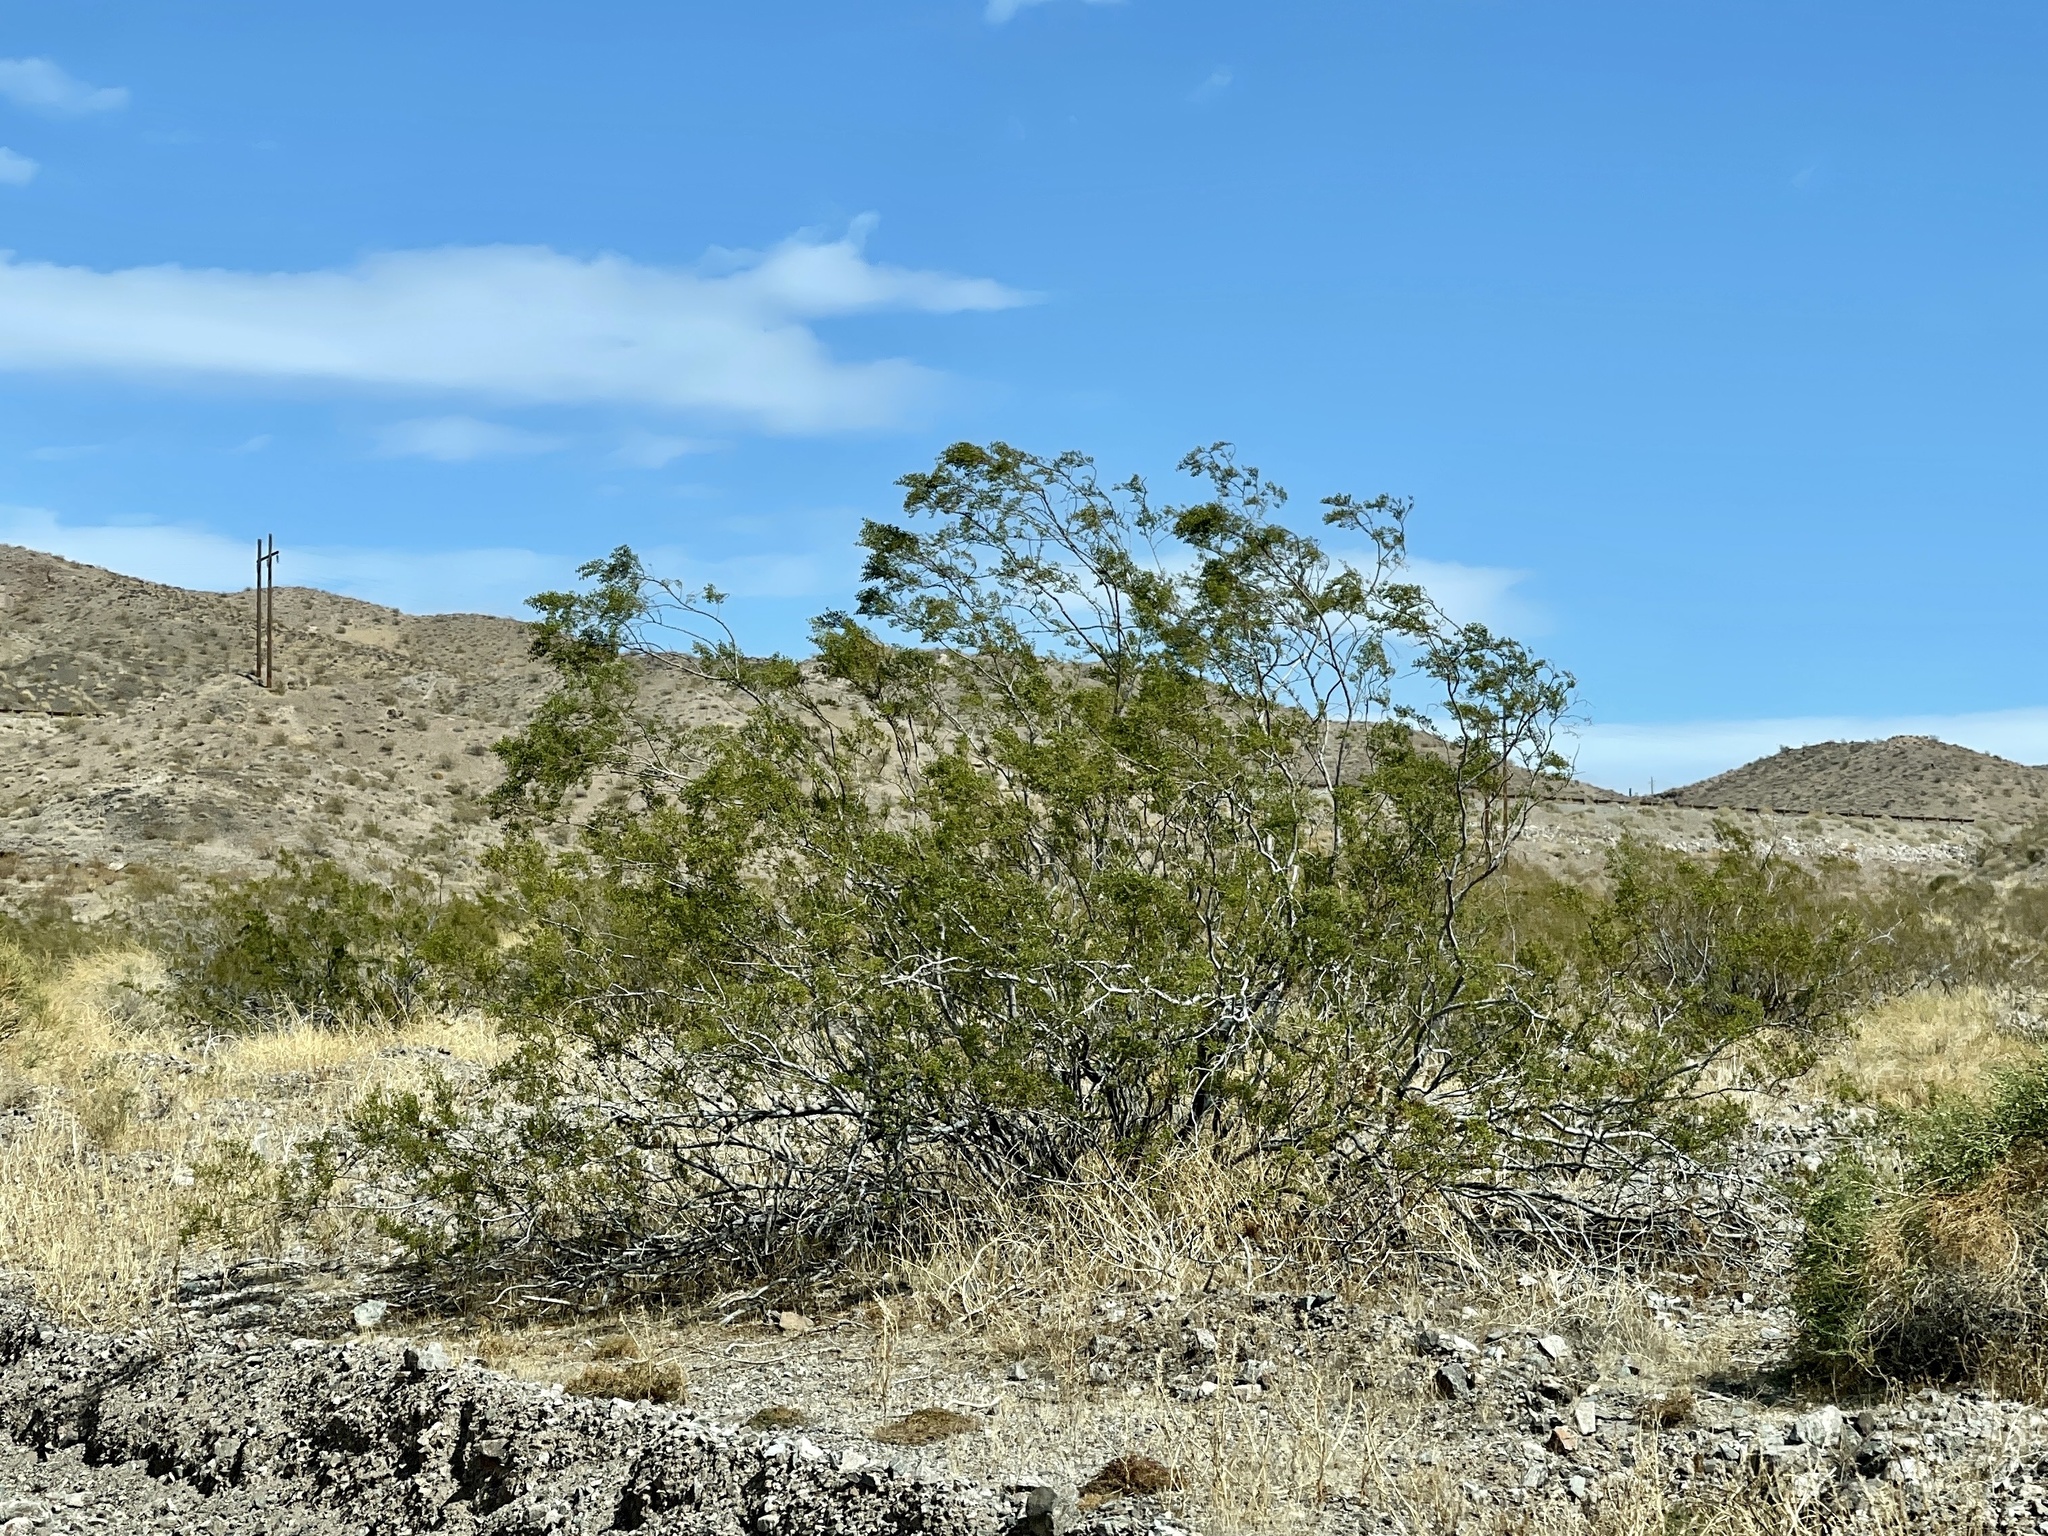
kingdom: Plantae
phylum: Tracheophyta
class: Magnoliopsida
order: Zygophyllales
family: Zygophyllaceae
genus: Larrea
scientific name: Larrea tridentata
